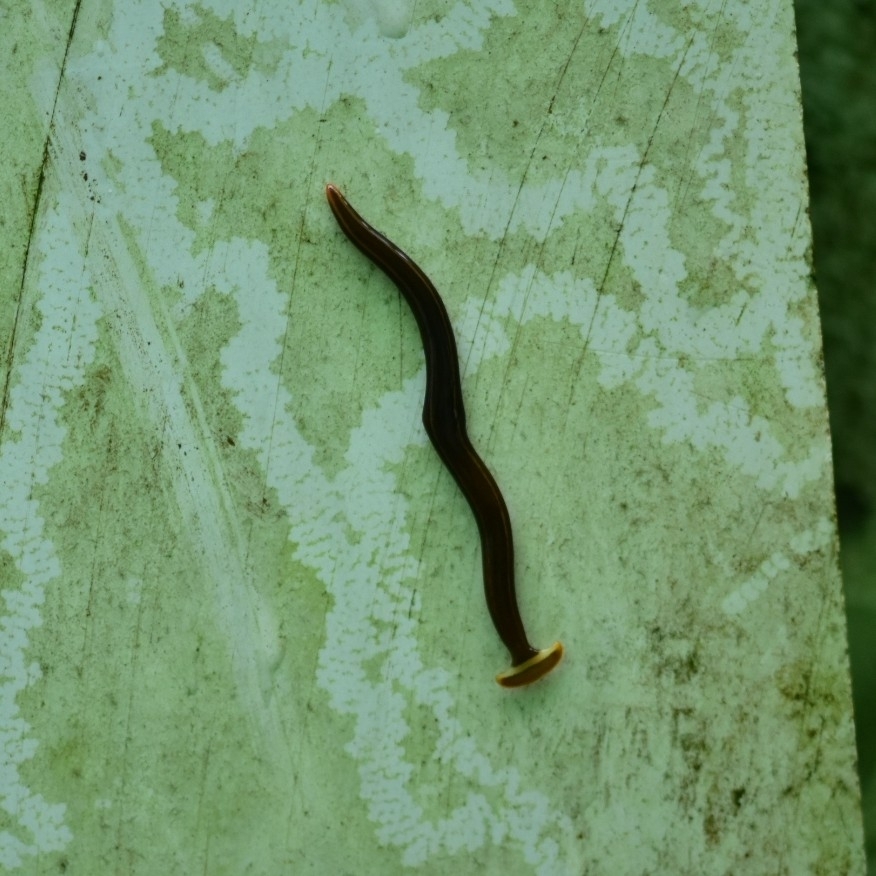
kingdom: Animalia
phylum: Platyhelminthes
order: Tricladida
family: Geoplanidae
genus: Diversibipalium
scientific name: Diversibipalium andrewsi
